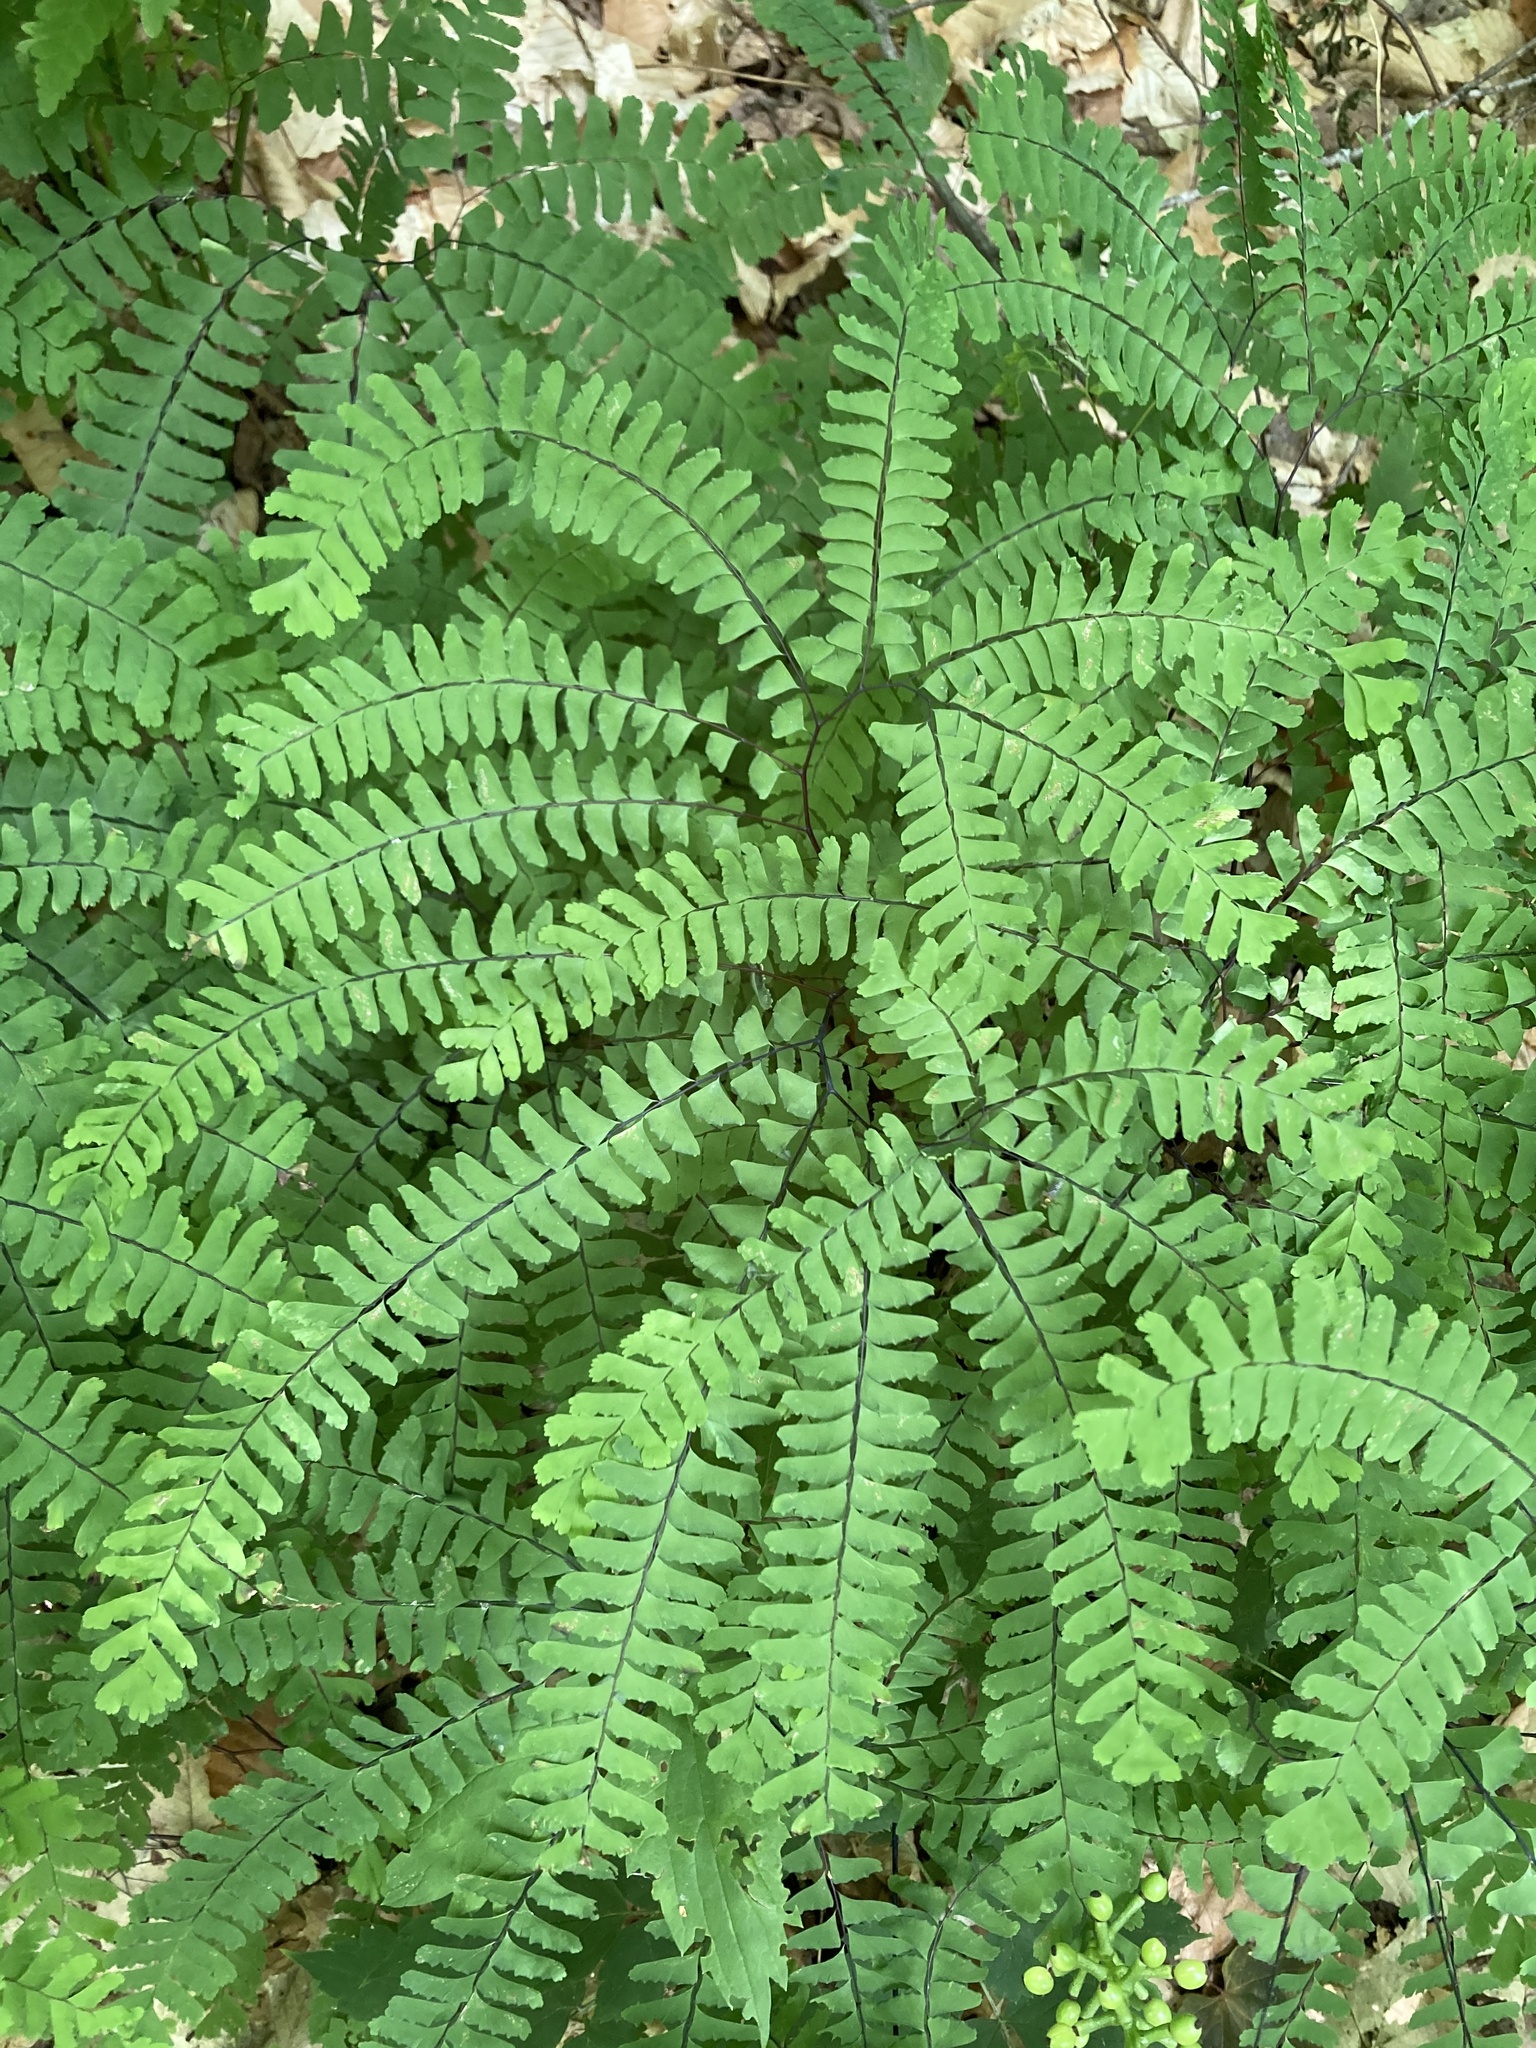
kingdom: Plantae
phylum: Tracheophyta
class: Polypodiopsida
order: Polypodiales
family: Pteridaceae
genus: Adiantum
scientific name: Adiantum pedatum
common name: Five-finger fern
